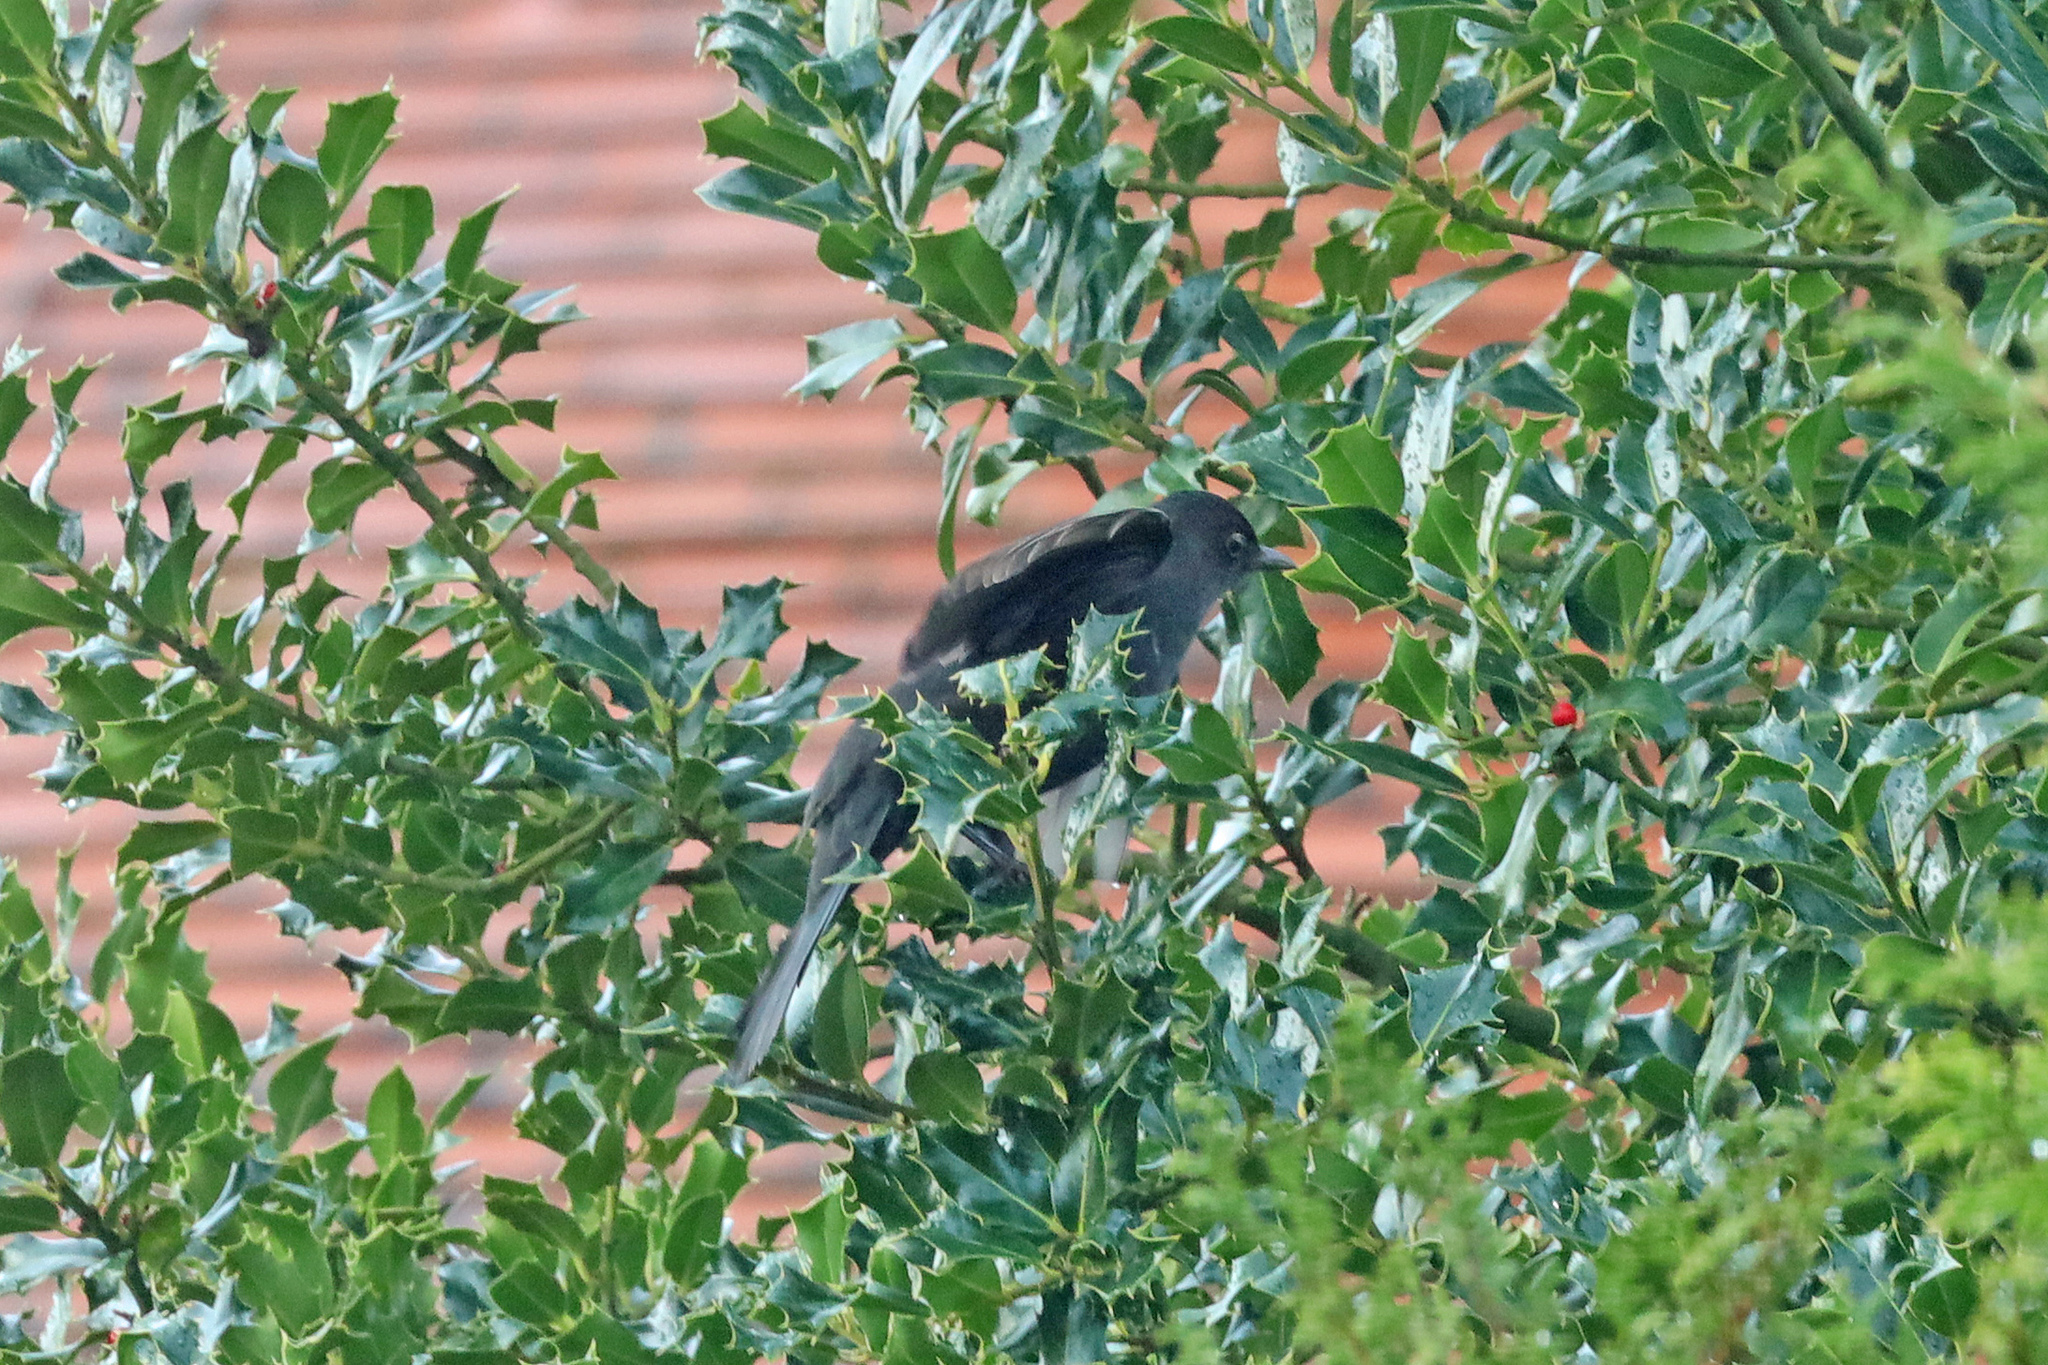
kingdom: Animalia
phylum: Chordata
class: Aves
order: Passeriformes
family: Turdidae
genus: Turdus
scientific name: Turdus merula
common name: Common blackbird
